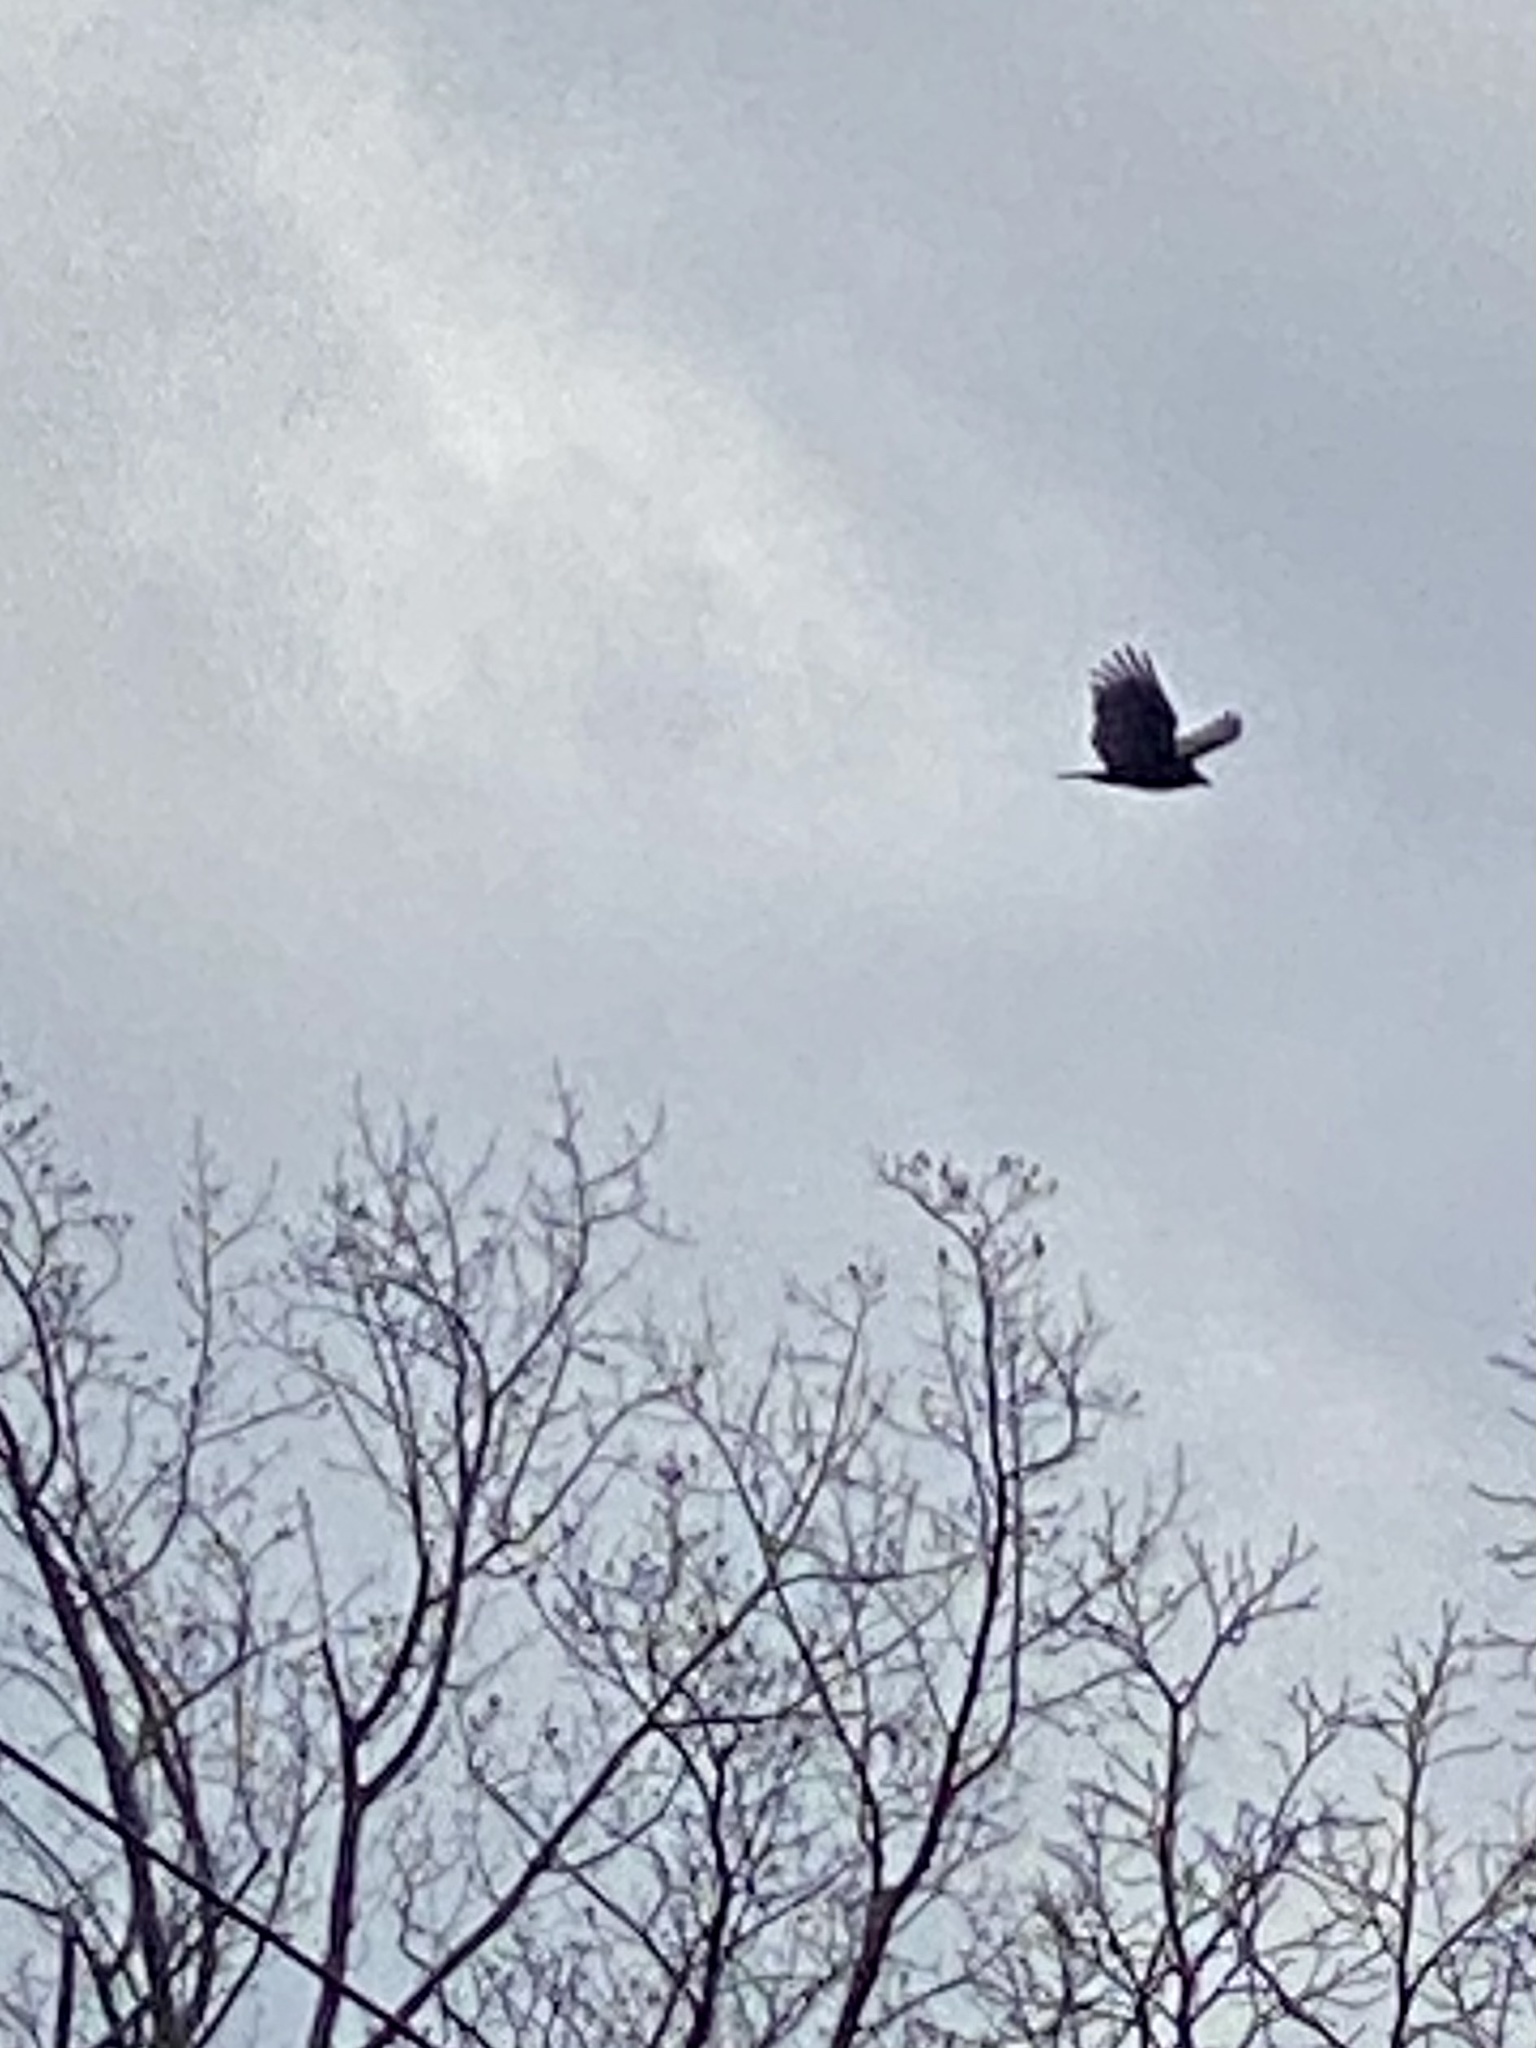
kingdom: Animalia
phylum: Chordata
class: Aves
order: Accipitriformes
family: Cathartidae
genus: Cathartes
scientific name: Cathartes aura
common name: Turkey vulture
